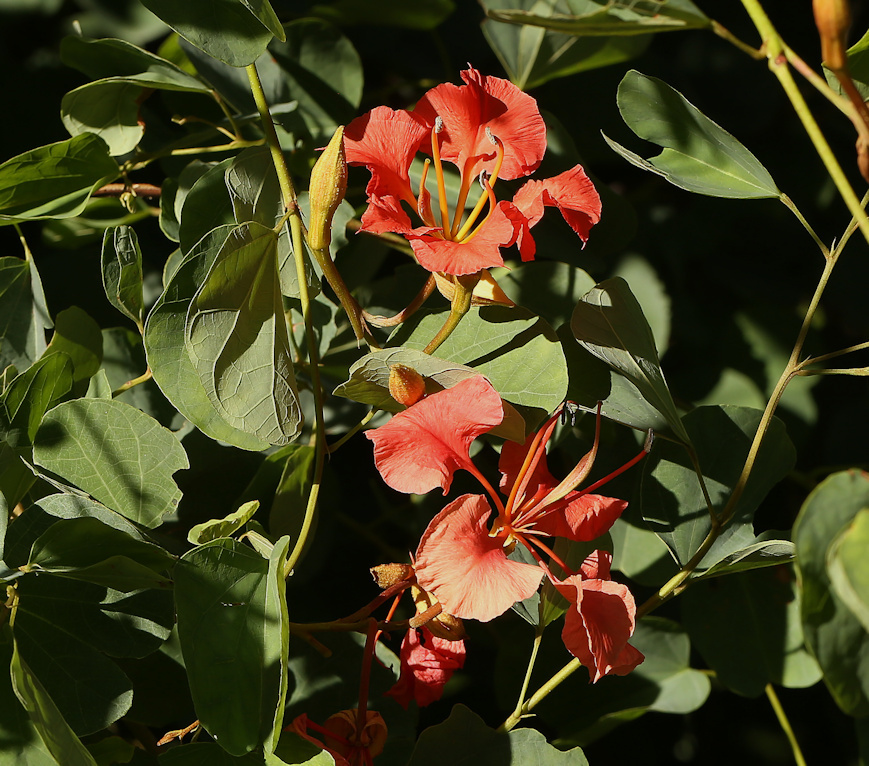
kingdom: Plantae
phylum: Tracheophyta
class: Magnoliopsida
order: Fabales
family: Fabaceae
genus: Bauhinia
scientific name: Bauhinia galpinii
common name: African plume
